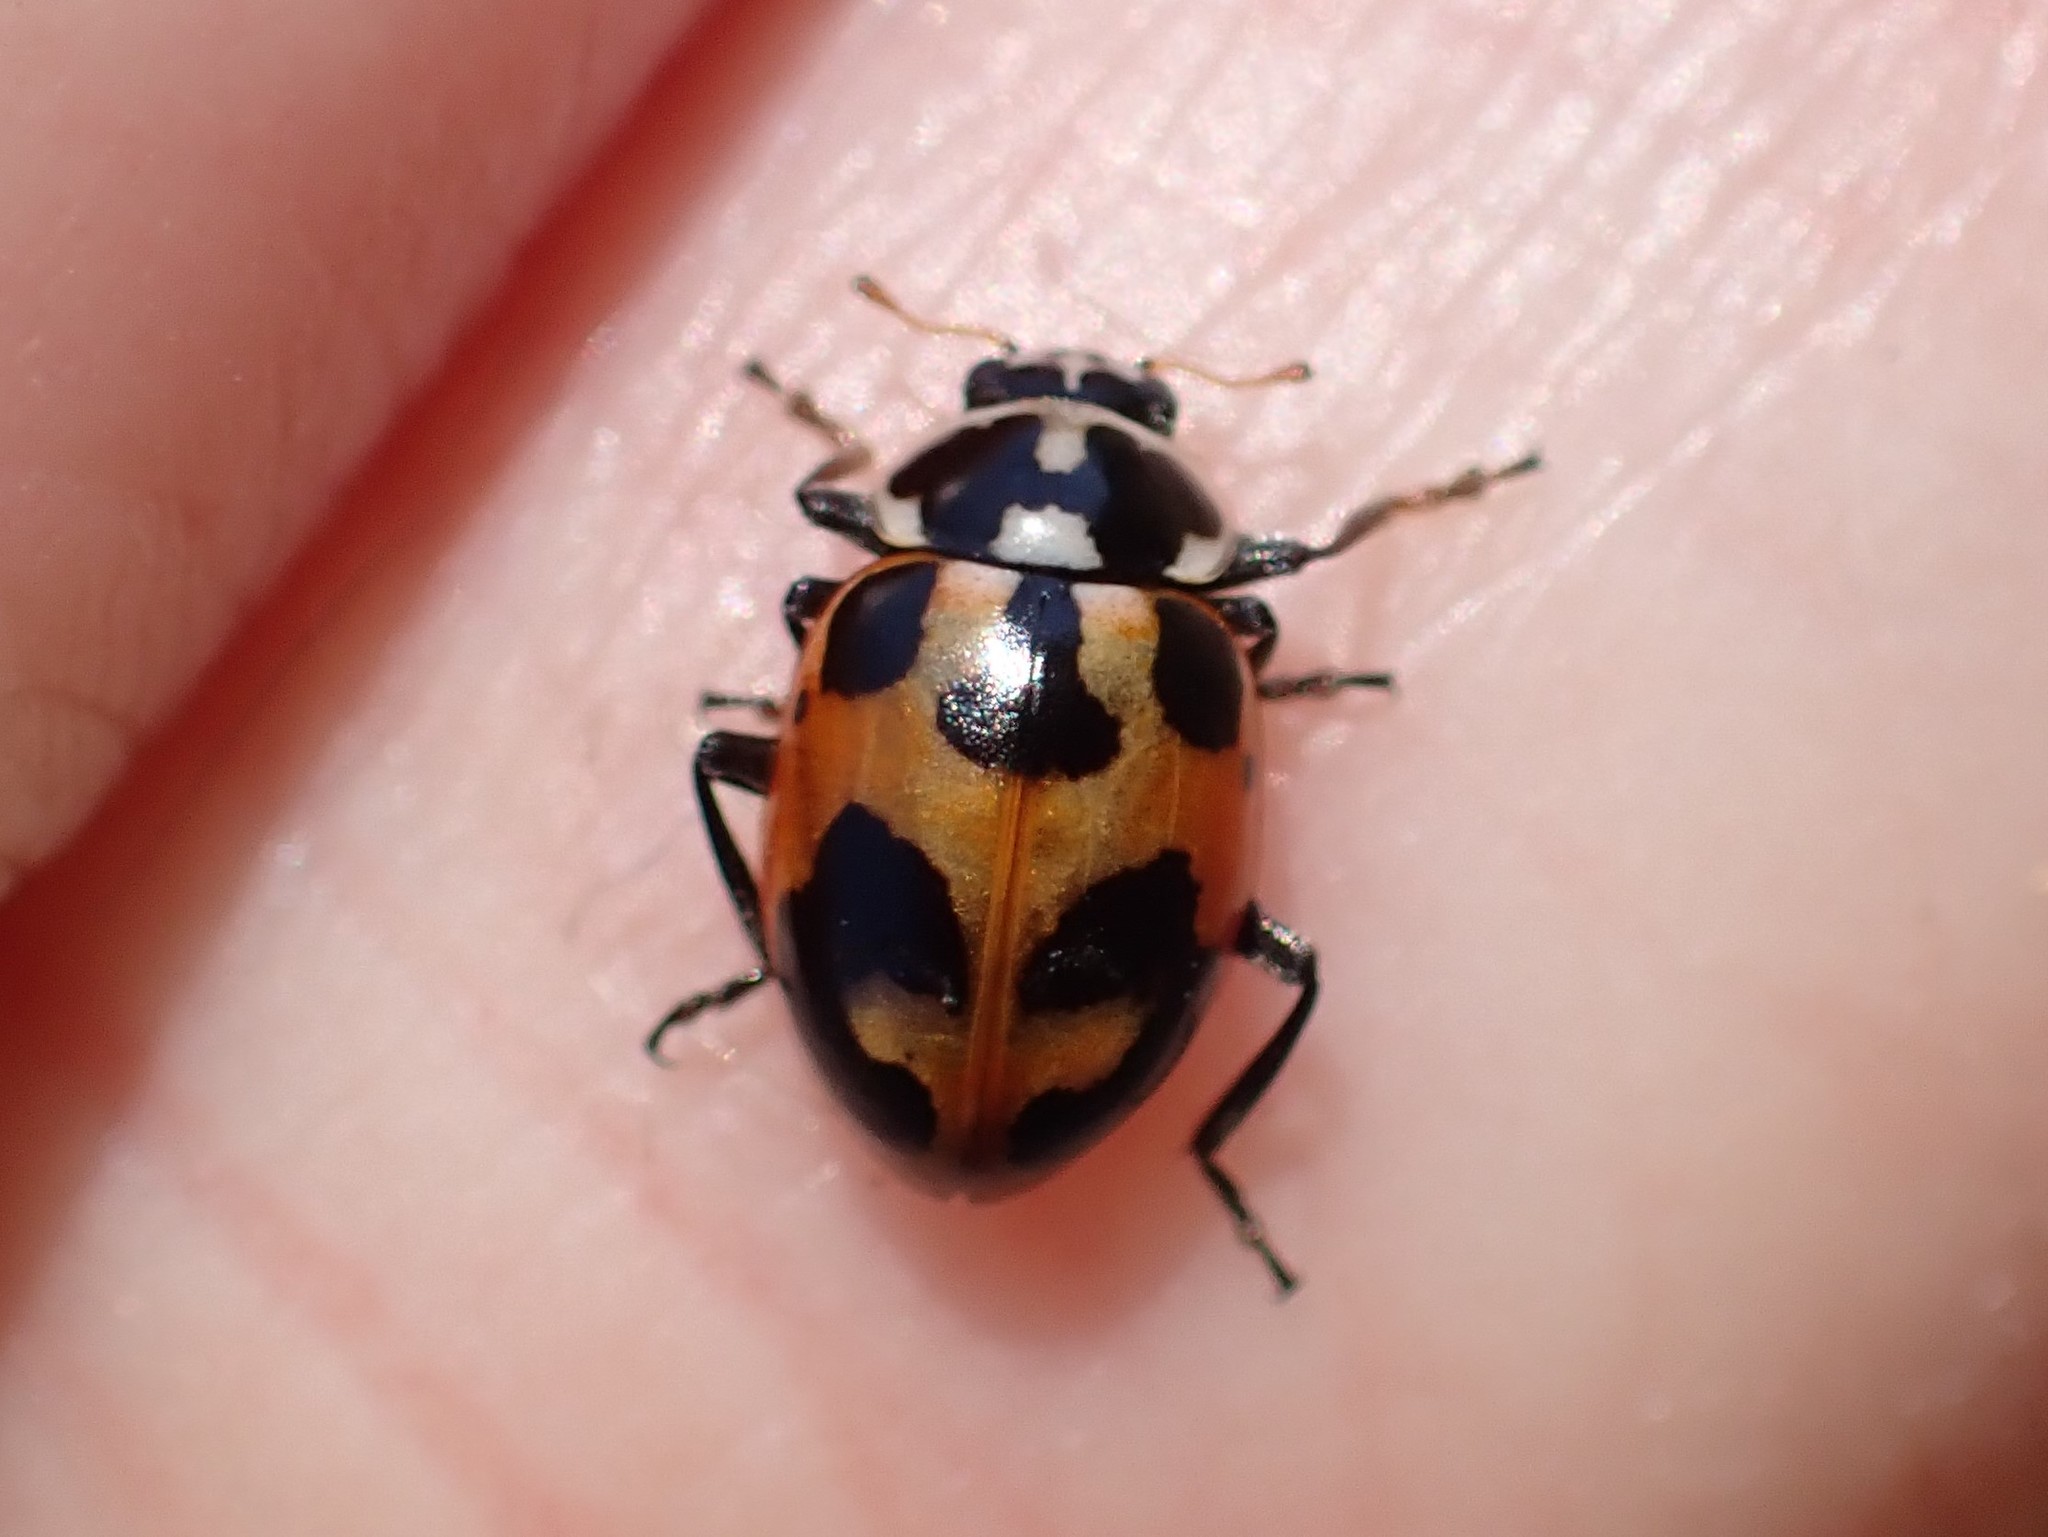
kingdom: Animalia
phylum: Arthropoda
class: Insecta
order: Coleoptera
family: Coccinellidae
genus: Hippodamia
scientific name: Hippodamia parenthesis
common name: Parenthesis lady beetle
